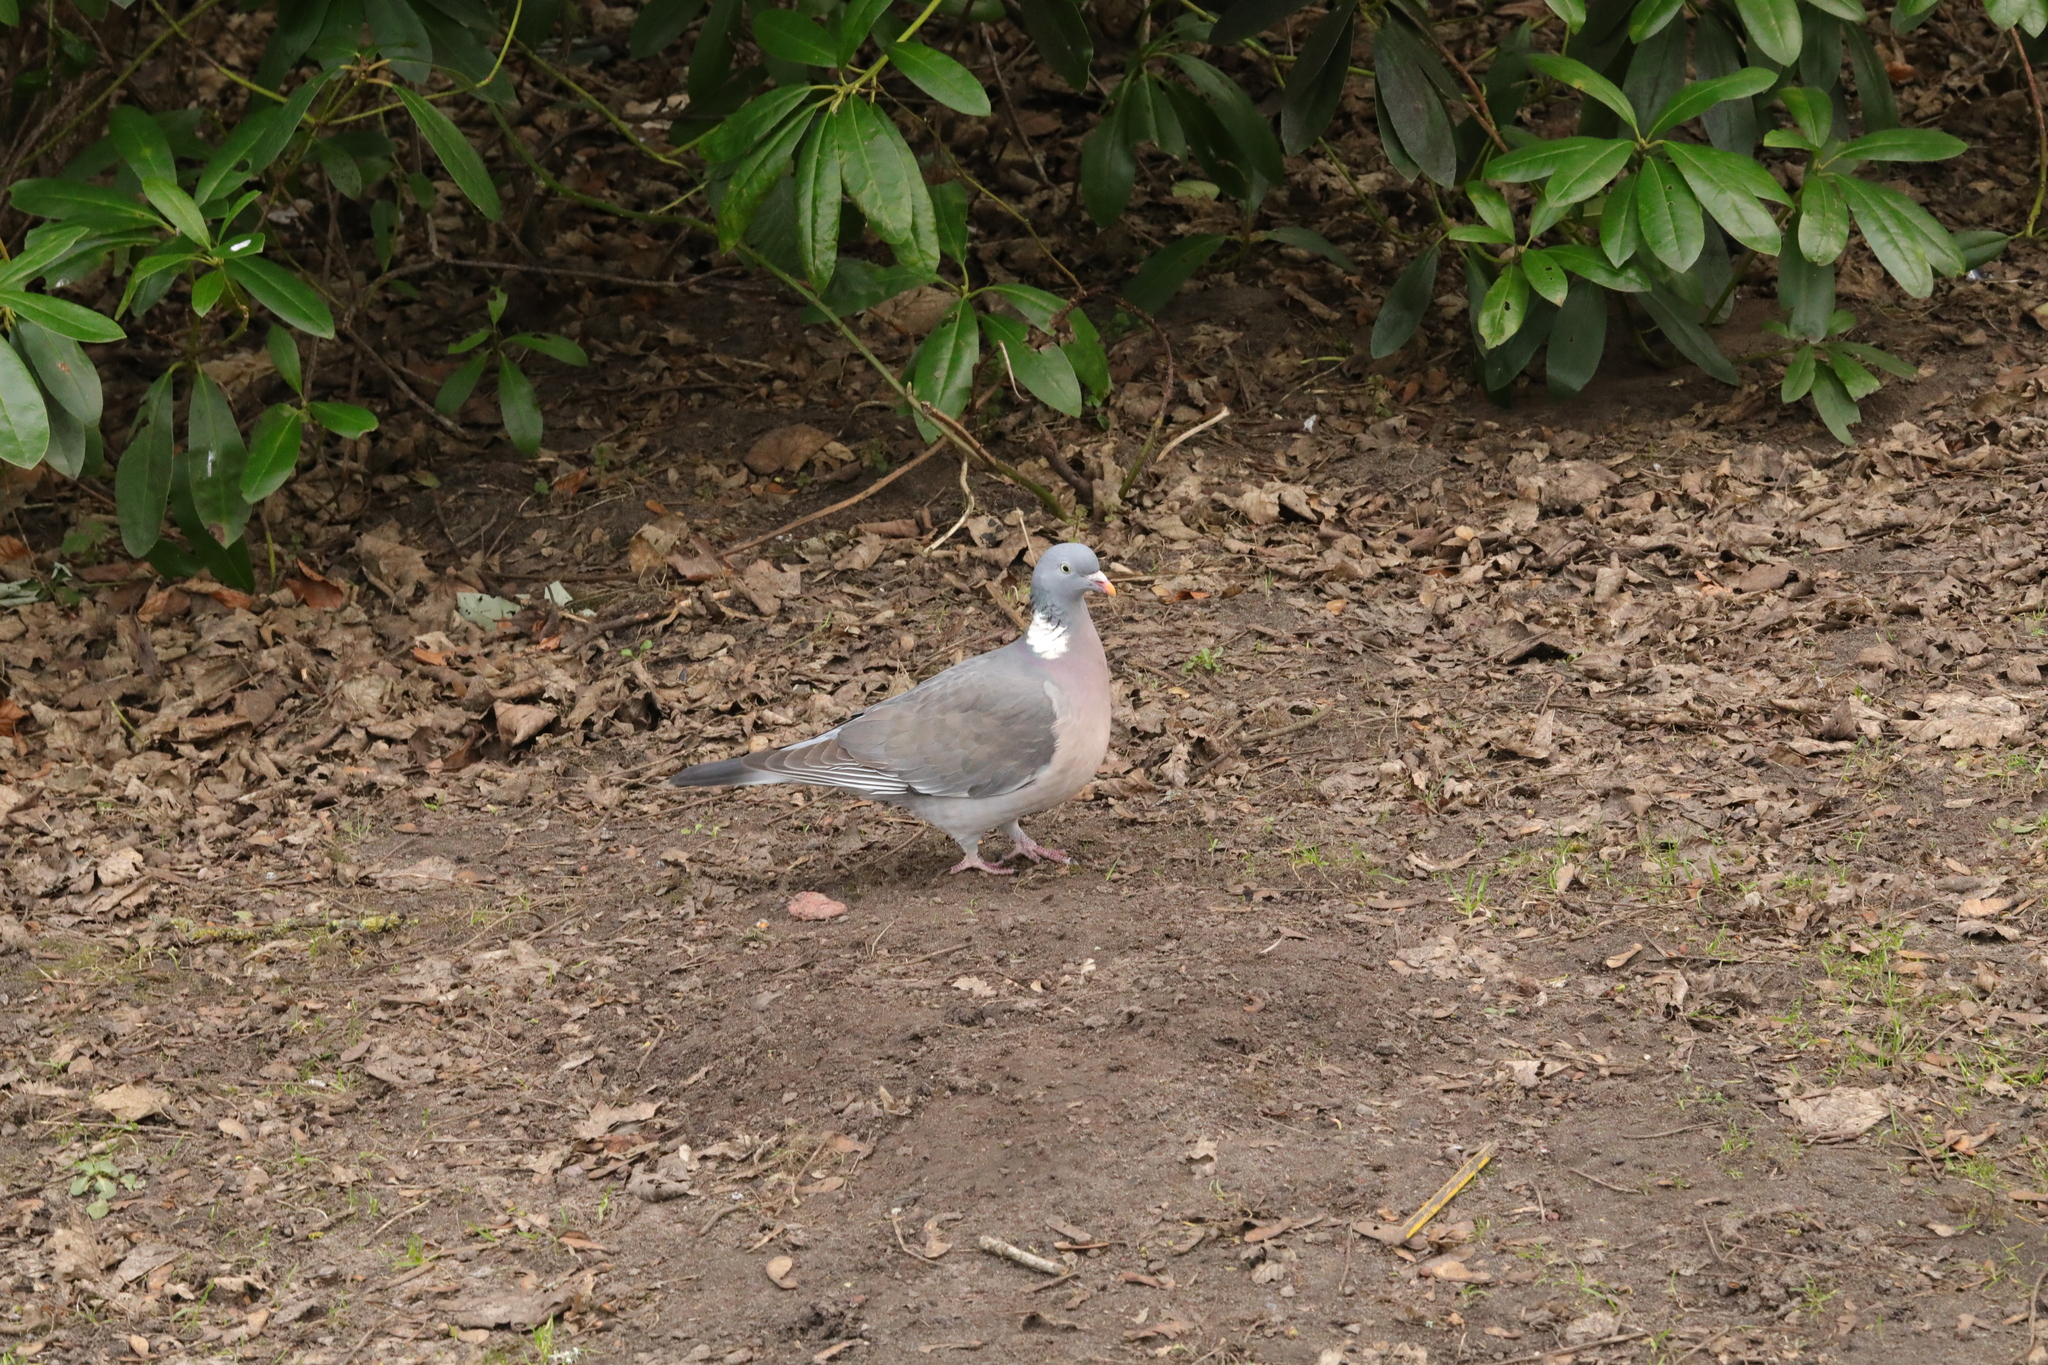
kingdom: Animalia
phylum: Chordata
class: Aves
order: Columbiformes
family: Columbidae
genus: Columba
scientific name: Columba palumbus
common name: Common wood pigeon
